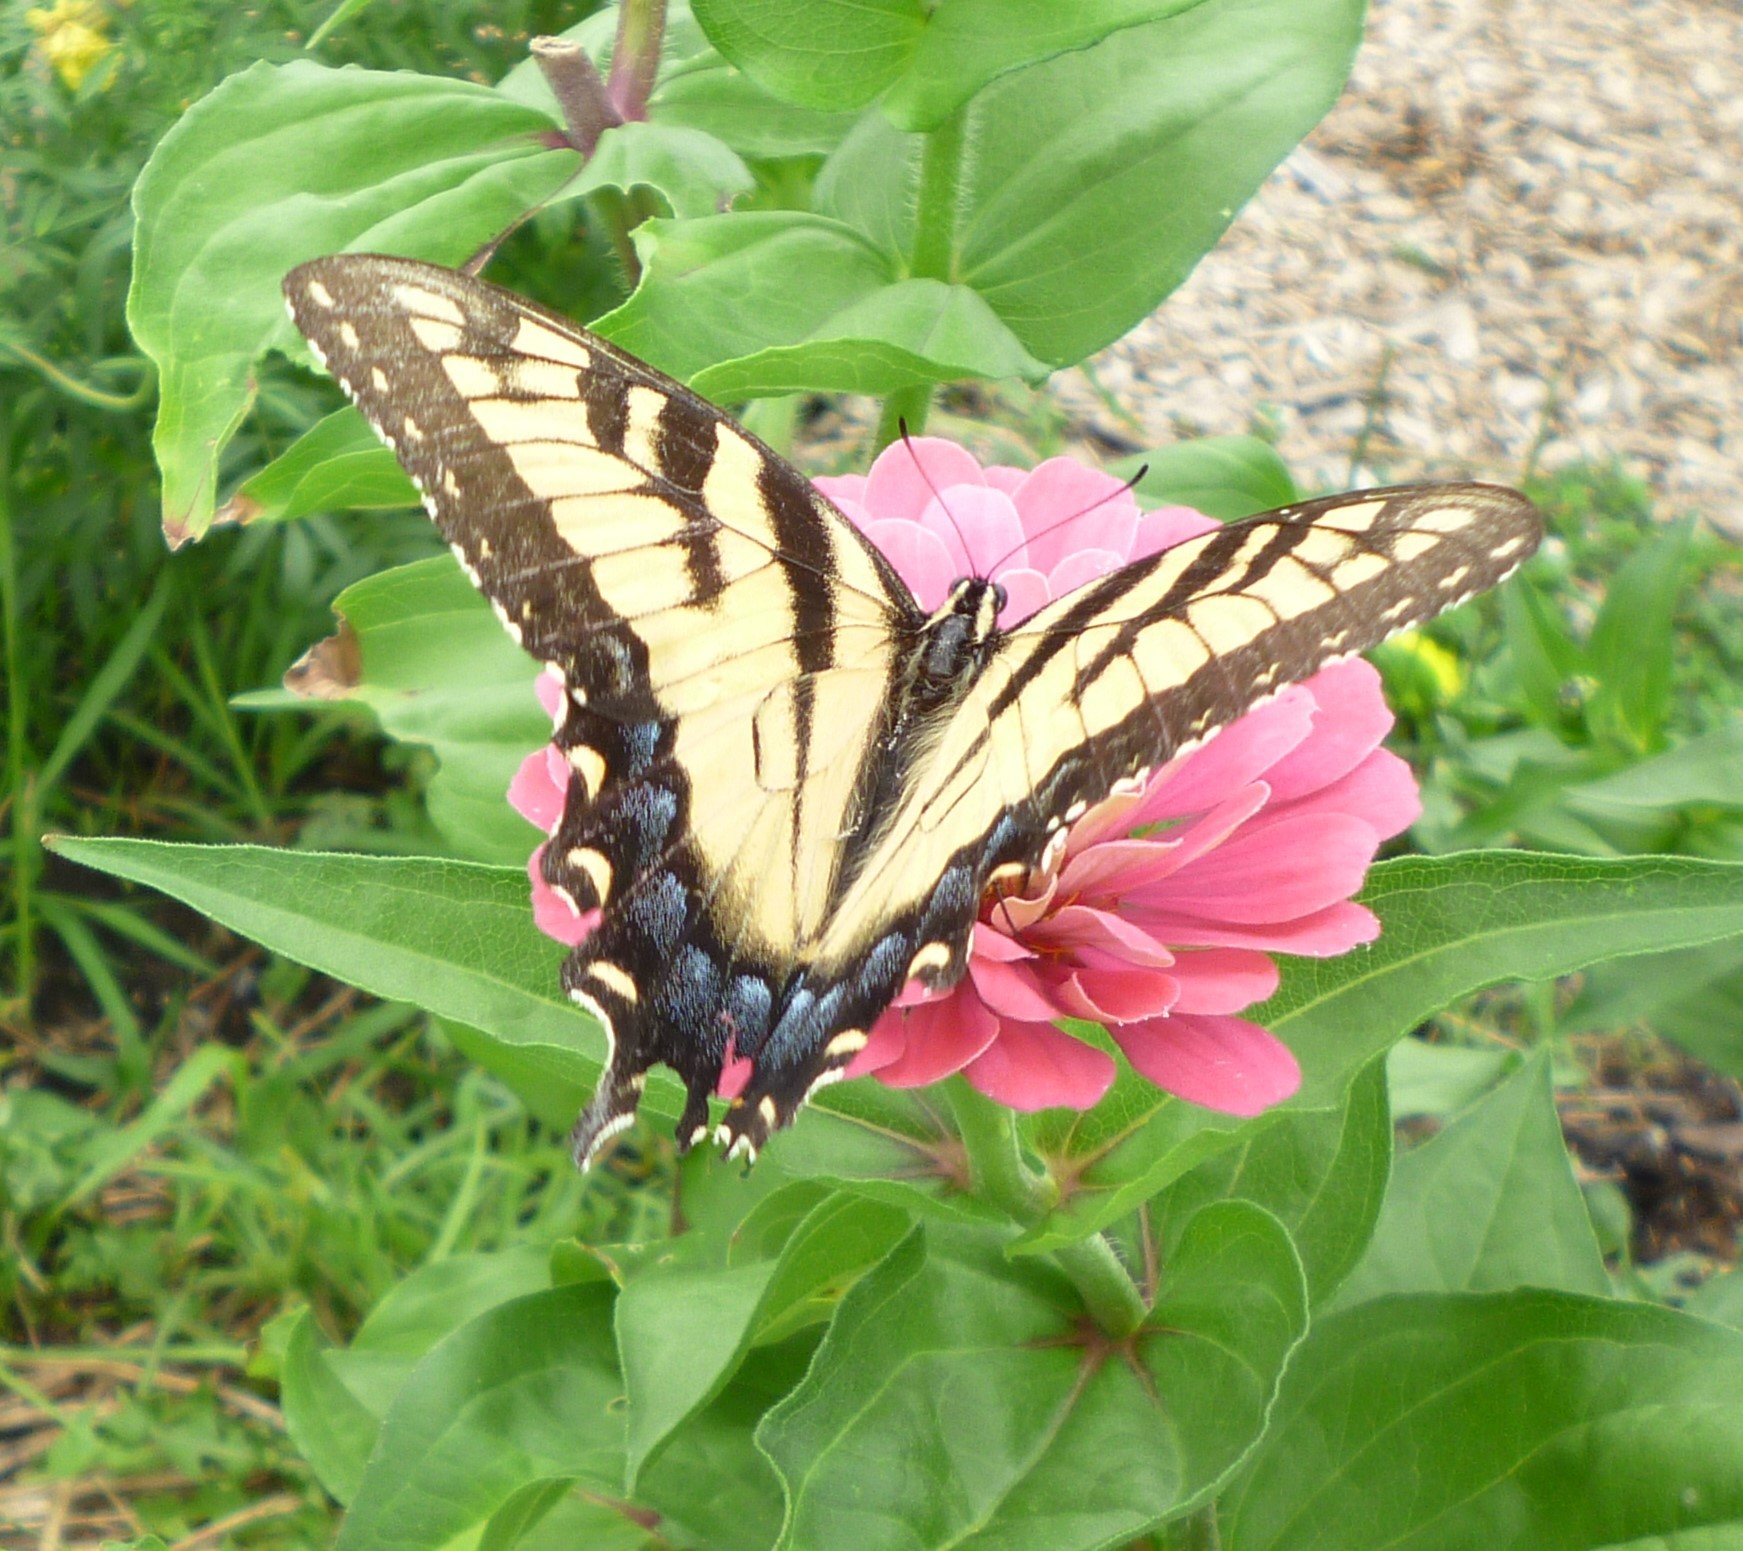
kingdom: Animalia
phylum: Arthropoda
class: Insecta
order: Lepidoptera
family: Papilionidae
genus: Papilio
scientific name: Papilio glaucus
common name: Tiger swallowtail
